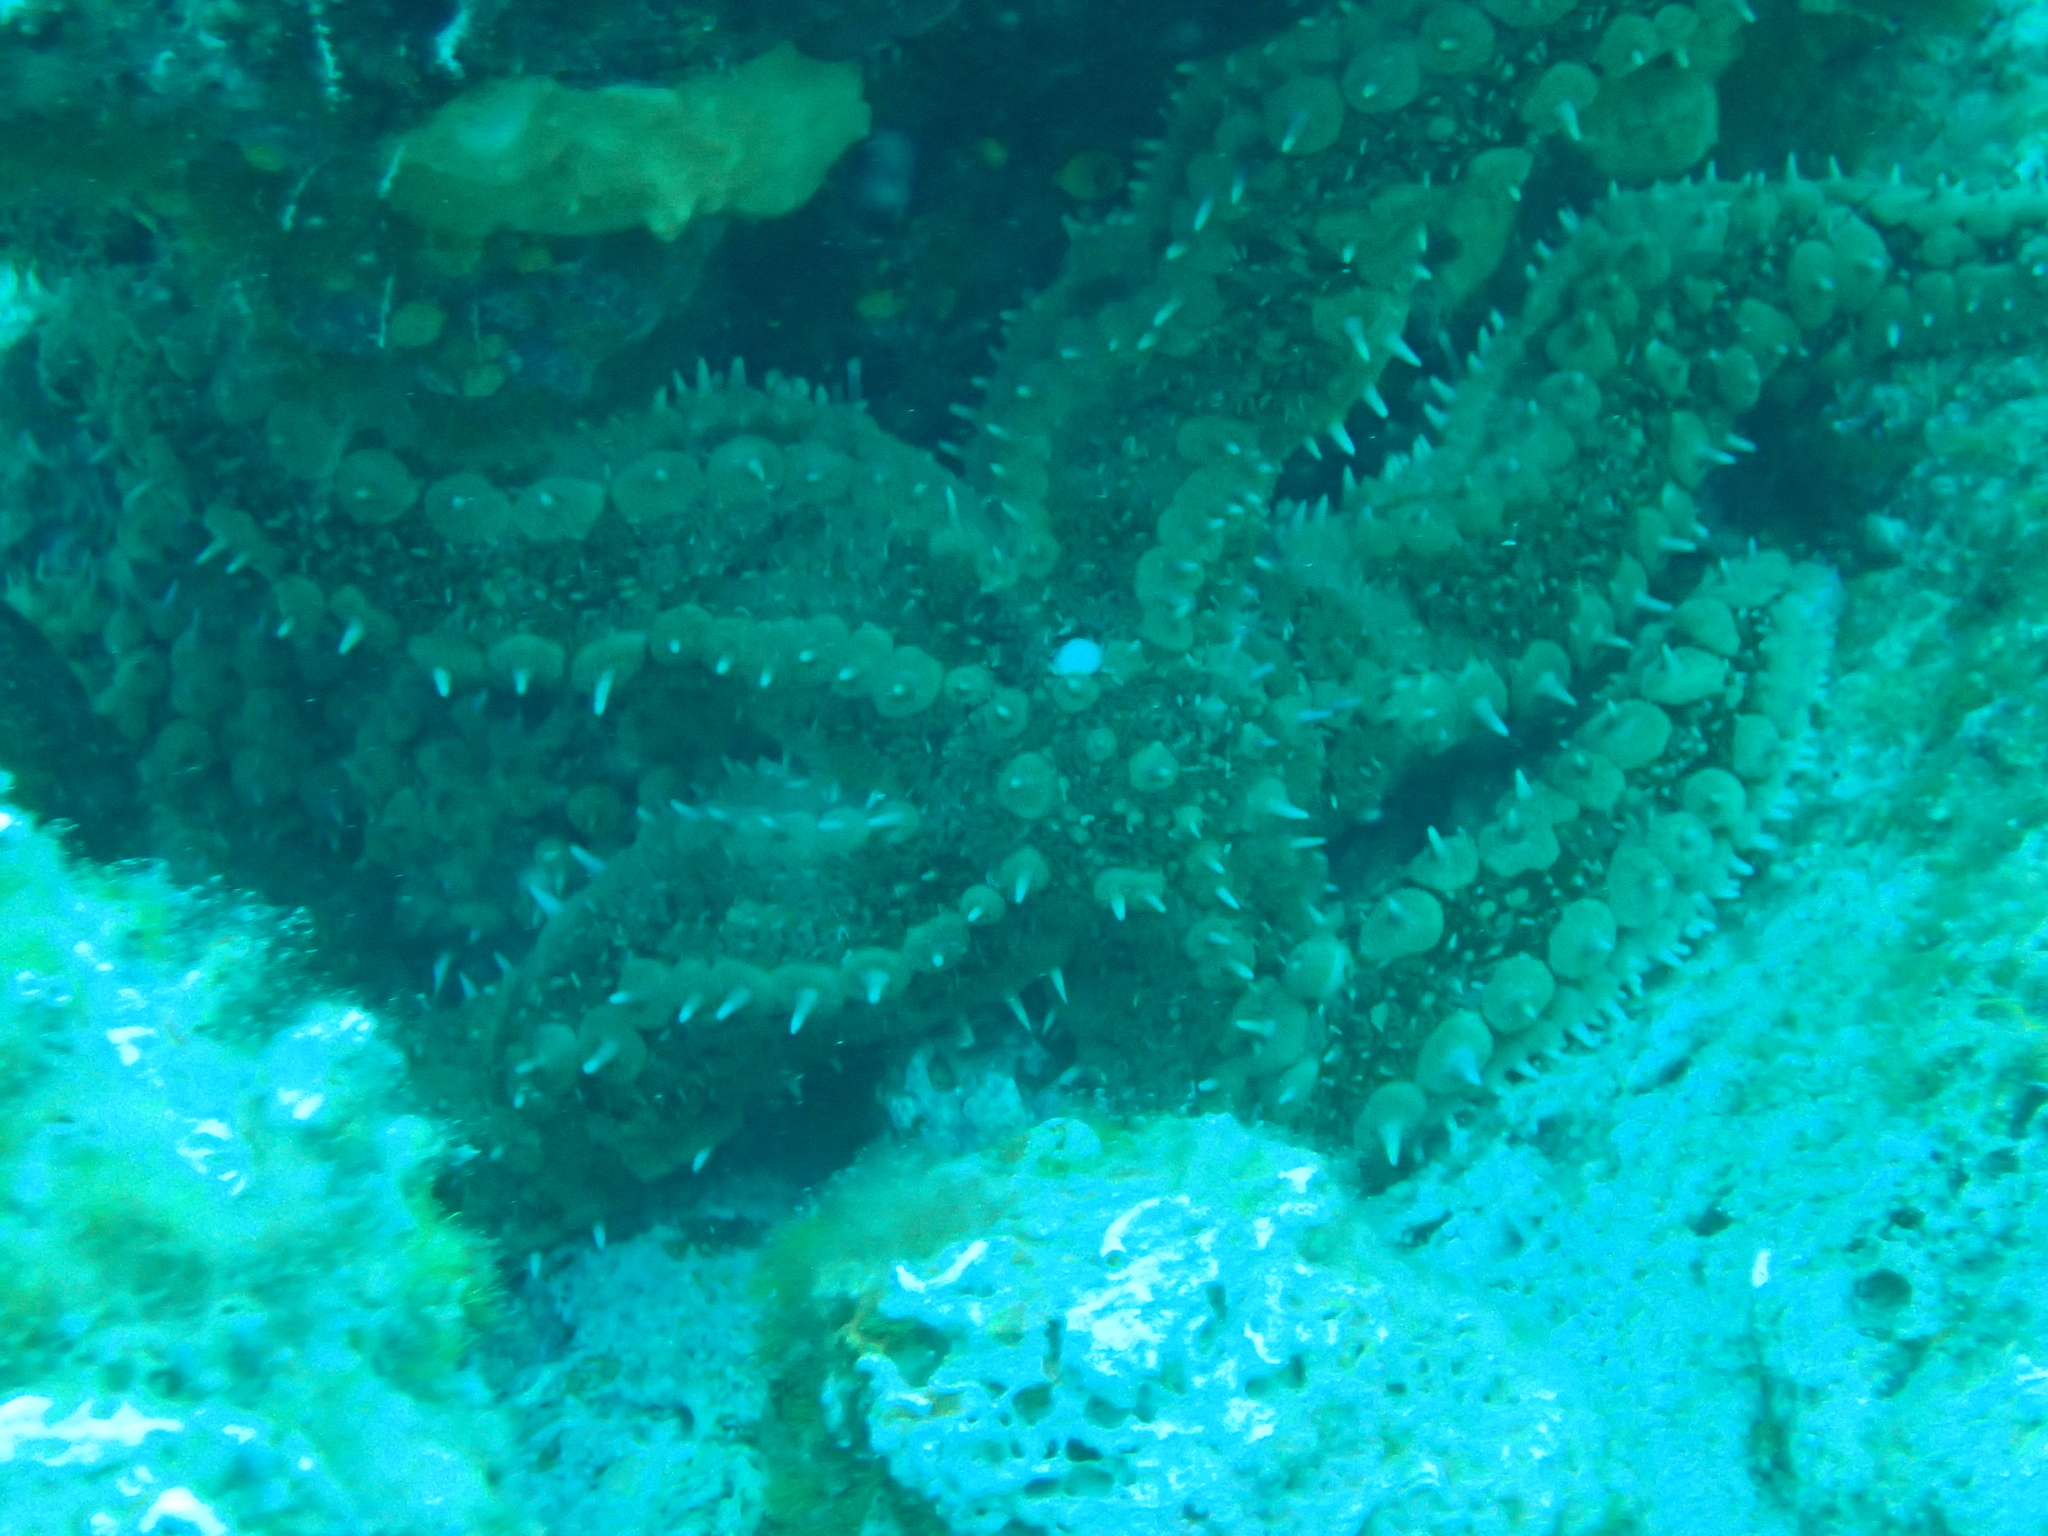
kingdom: Animalia
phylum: Echinodermata
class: Asteroidea
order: Forcipulatida
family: Asteriidae
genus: Marthasterias
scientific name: Marthasterias glacialis
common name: Spiny starfish
